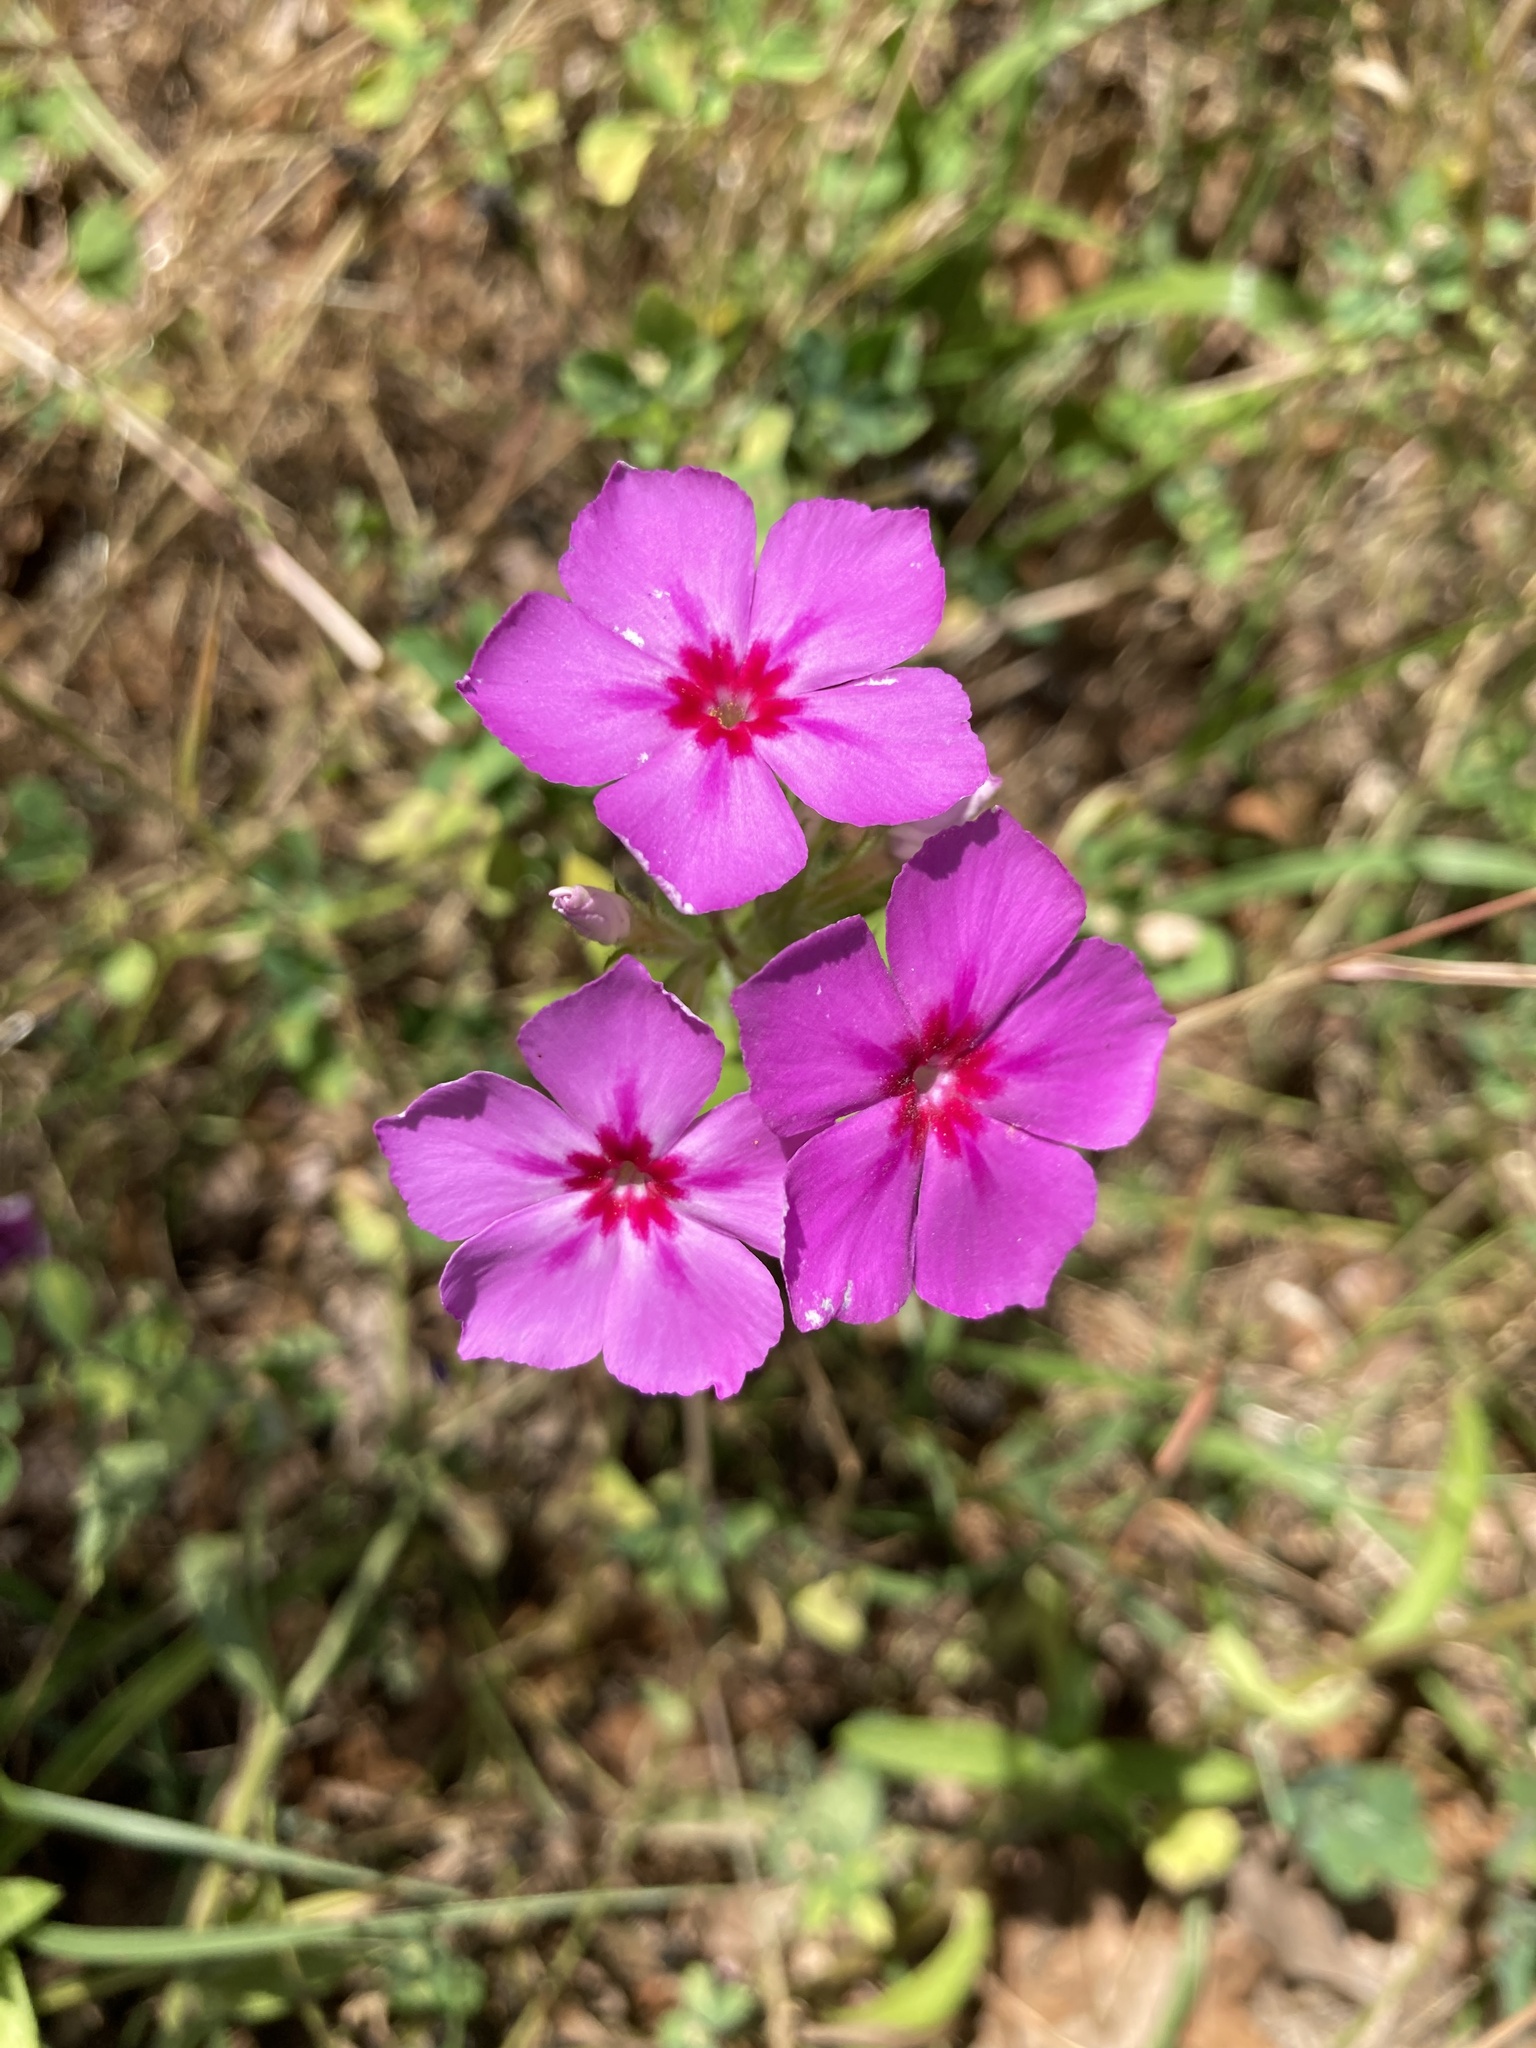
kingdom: Plantae
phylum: Tracheophyta
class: Magnoliopsida
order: Ericales
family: Polemoniaceae
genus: Phlox
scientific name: Phlox drummondii
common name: Drummond's phlox
